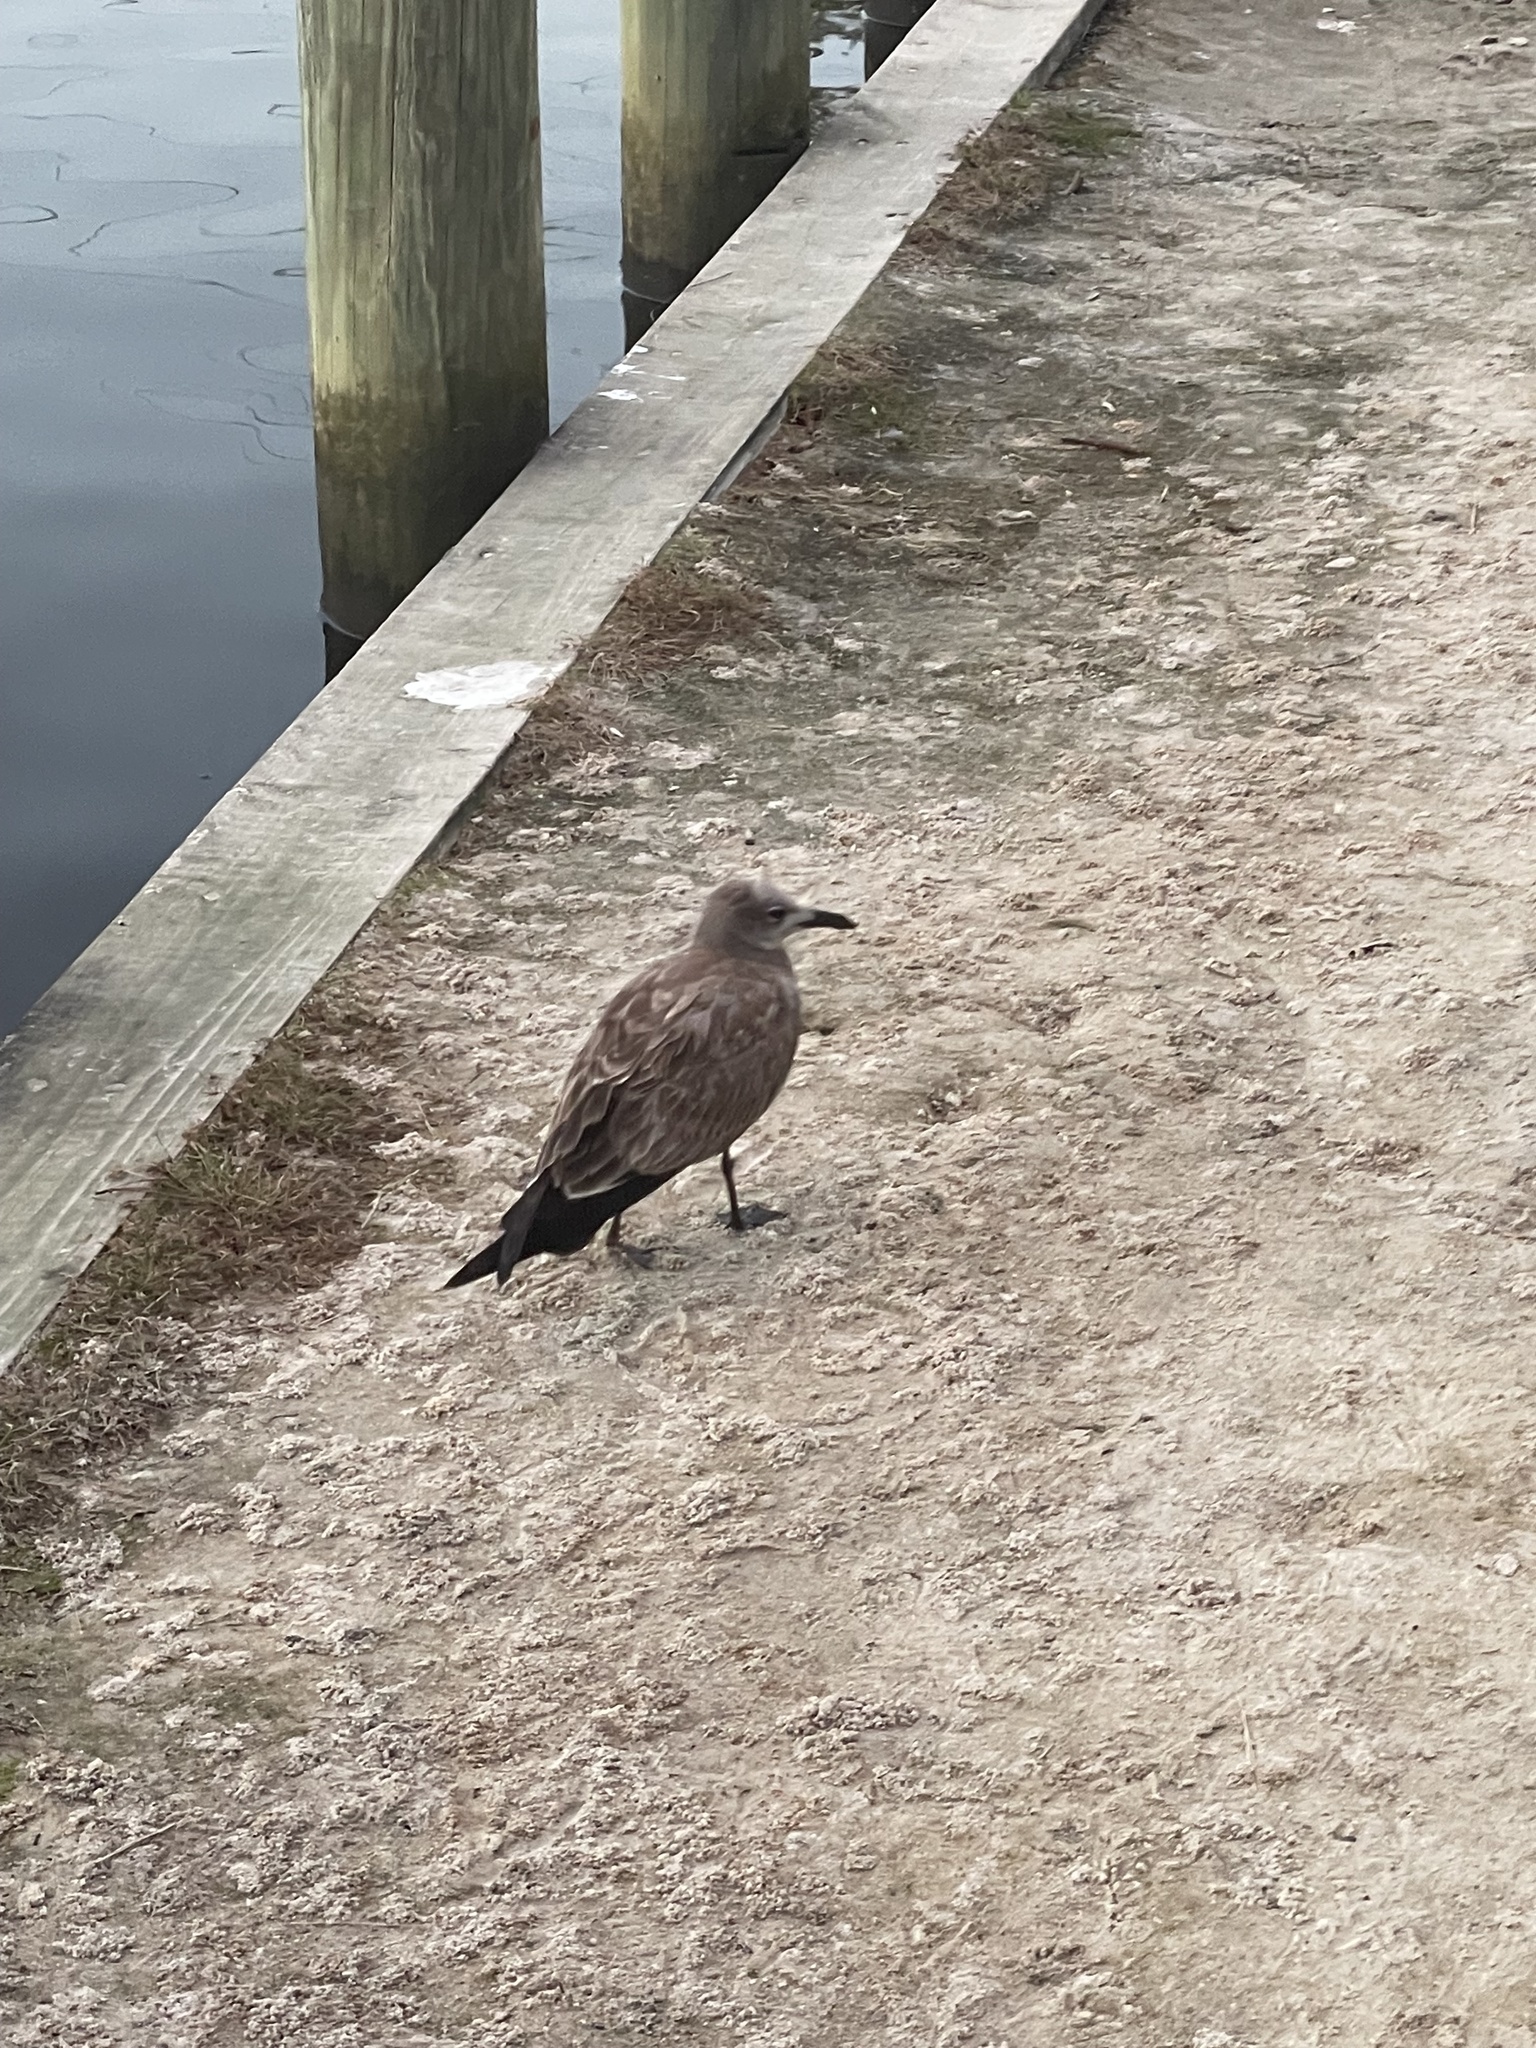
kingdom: Animalia
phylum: Chordata
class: Aves
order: Charadriiformes
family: Laridae
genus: Leucophaeus
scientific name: Leucophaeus atricilla
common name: Laughing gull
